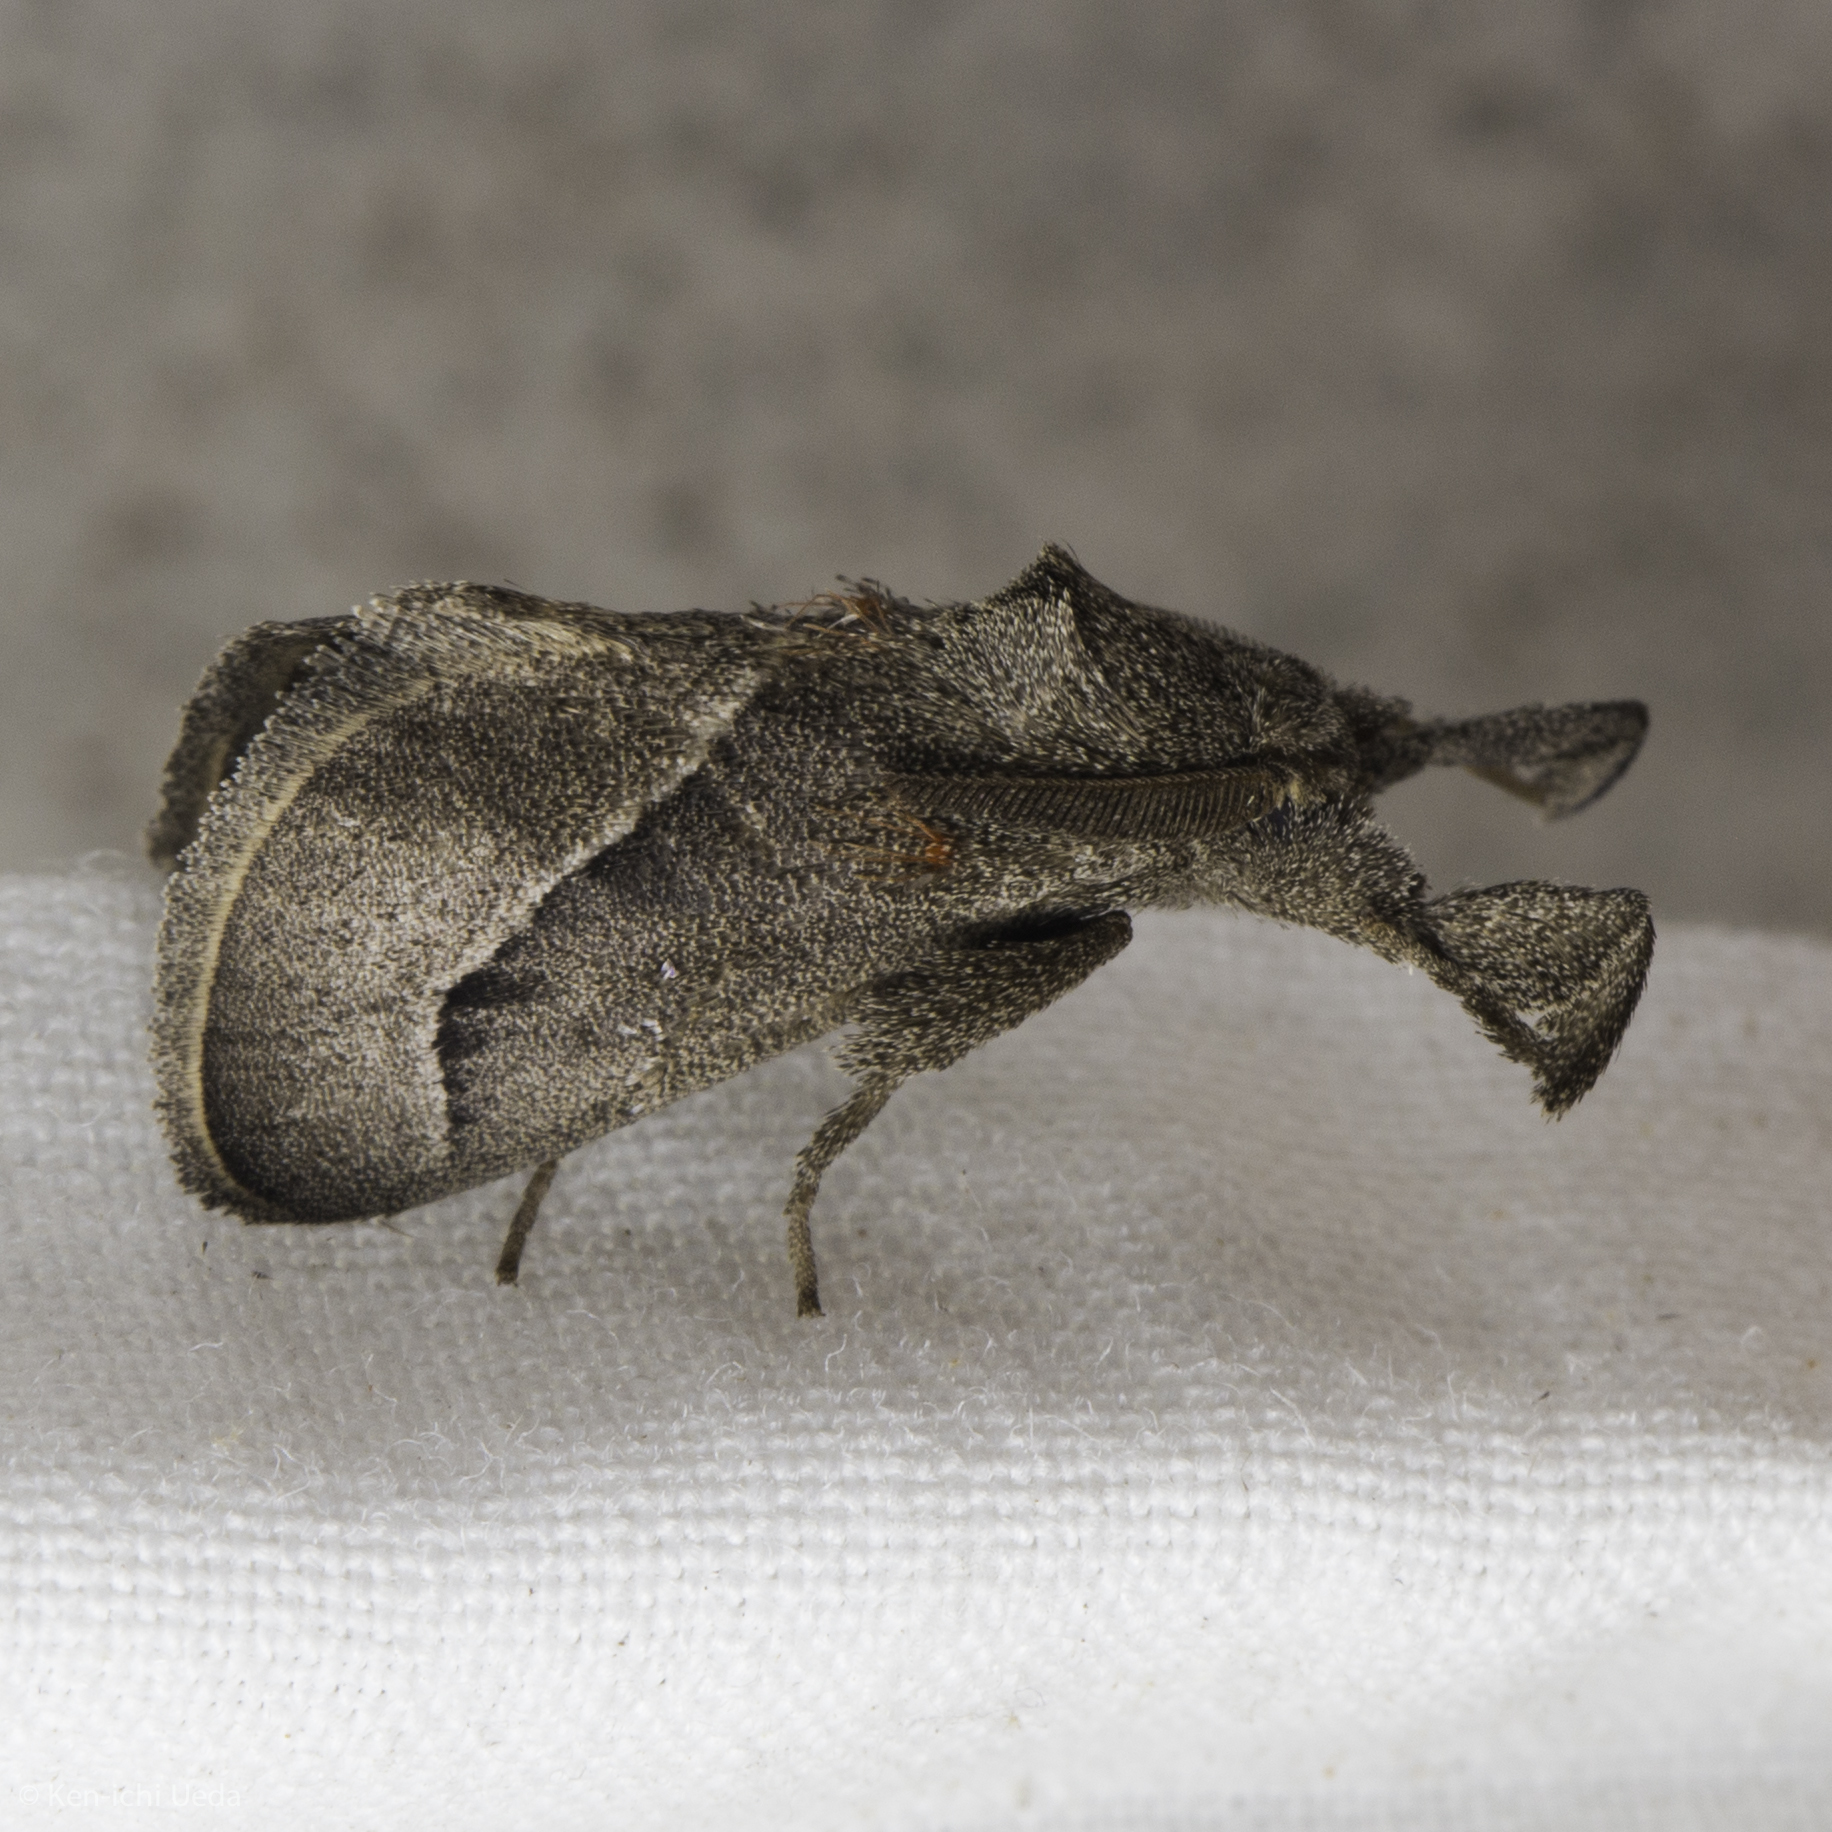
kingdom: Animalia
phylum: Arthropoda
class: Insecta
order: Lepidoptera
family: Limacodidae
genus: Perola
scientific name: Perola sinaloensis
